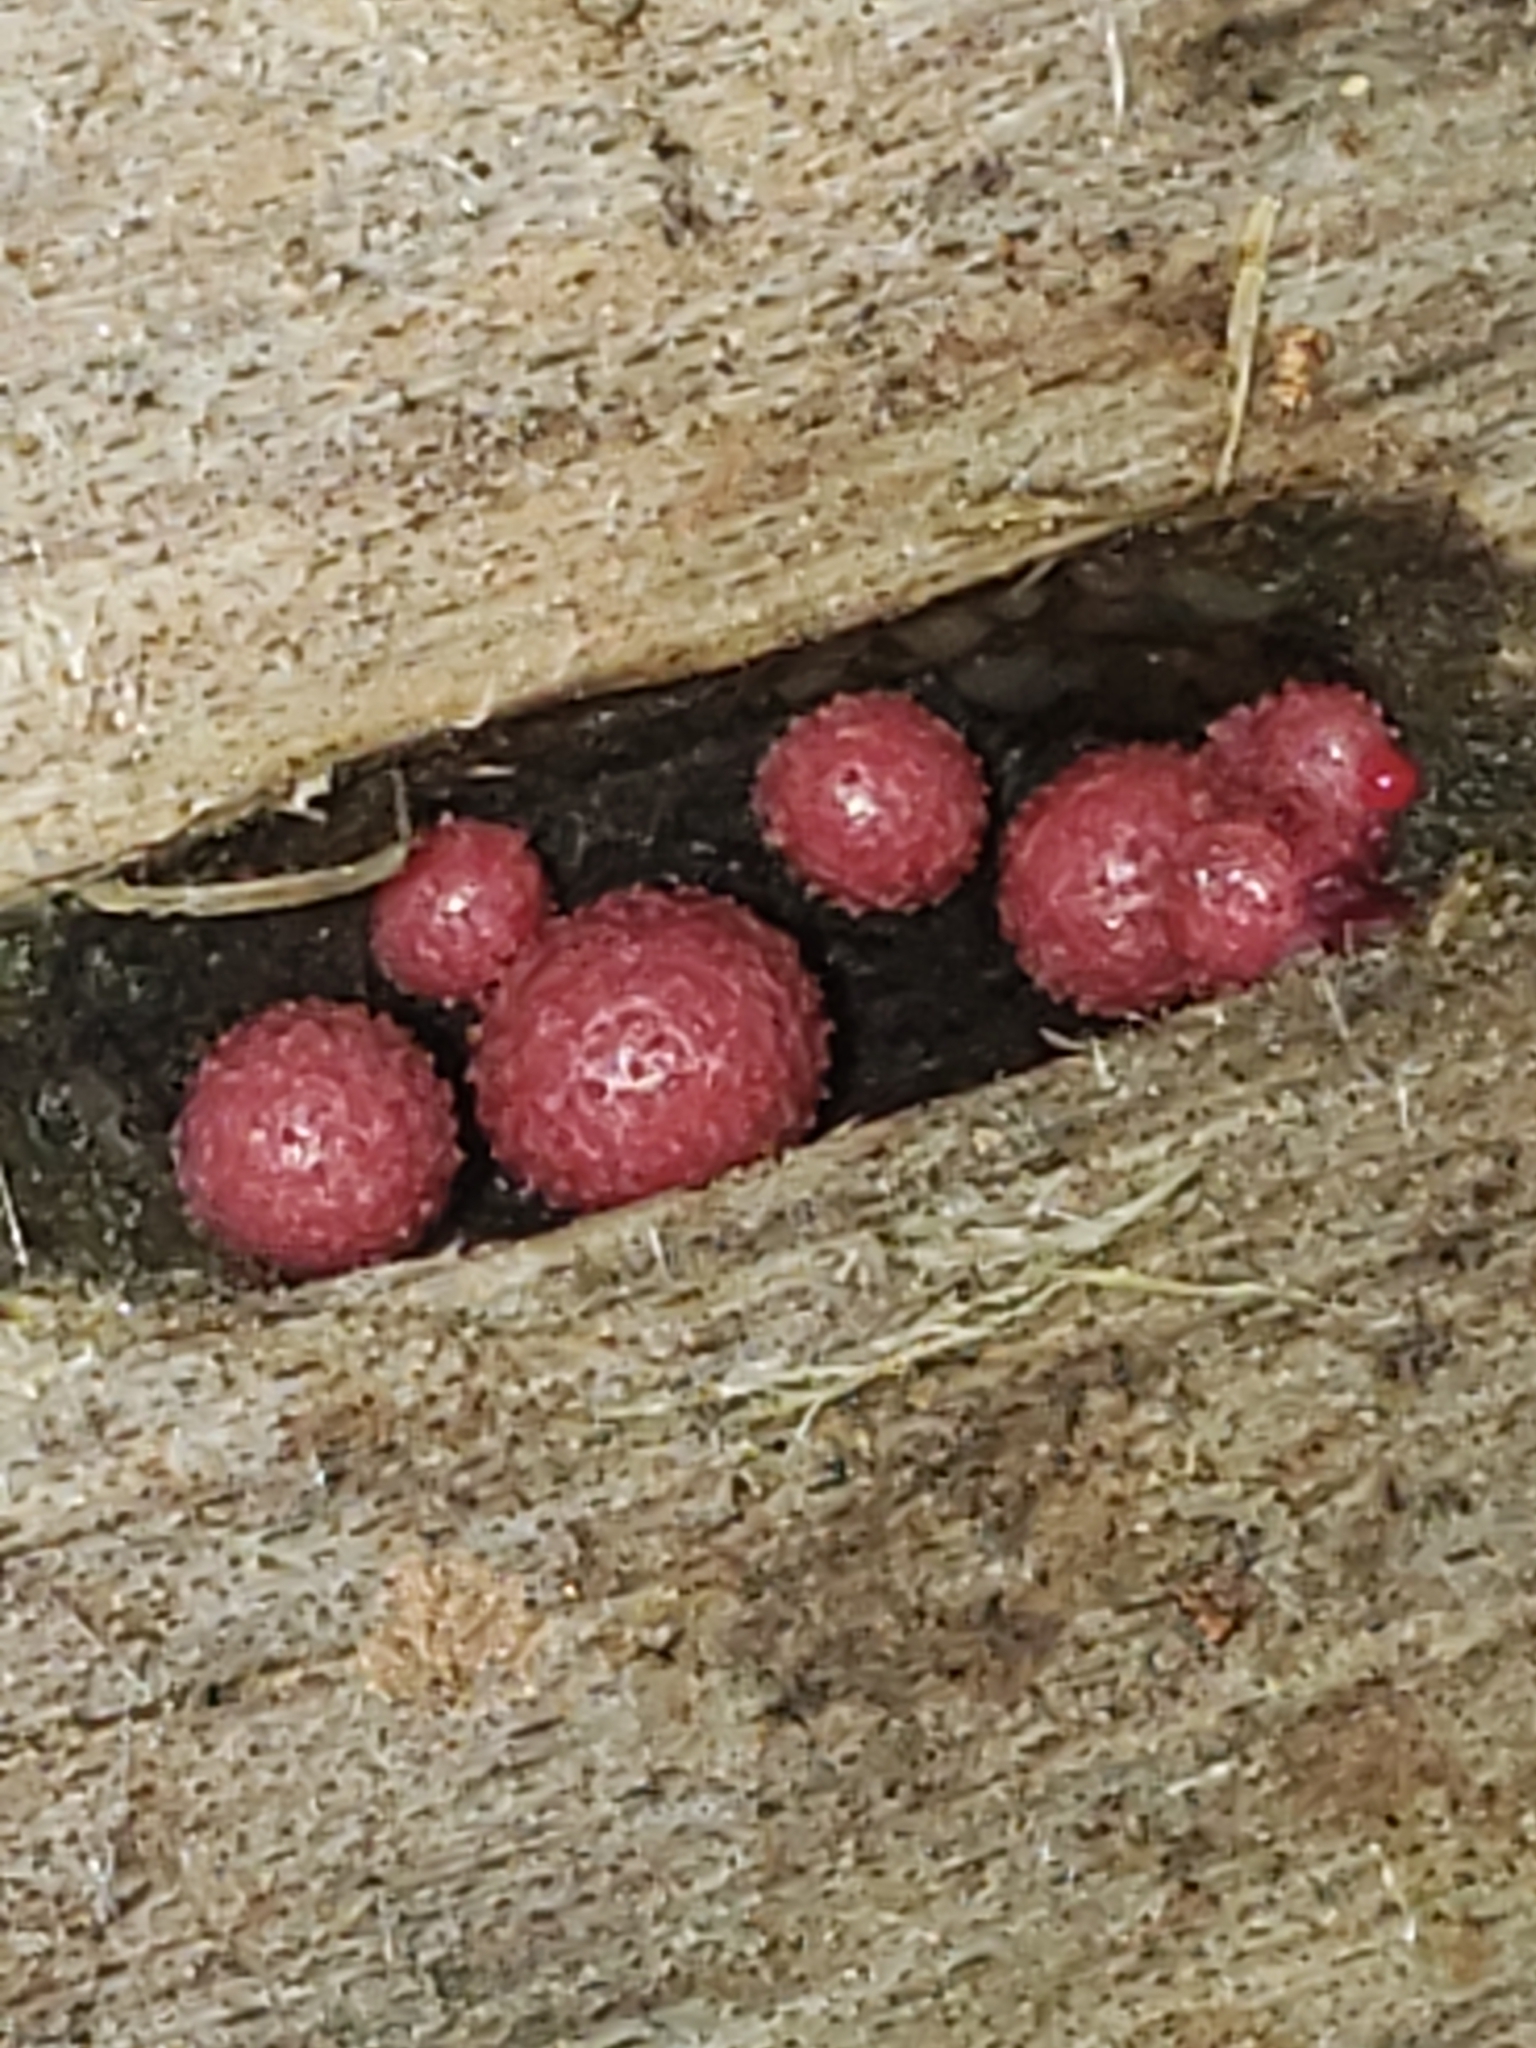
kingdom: Protozoa
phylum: Mycetozoa
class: Myxomycetes
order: Cribrariales
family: Tubiferaceae
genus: Lycogala
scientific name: Lycogala epidendrum
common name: Wolf's milk
